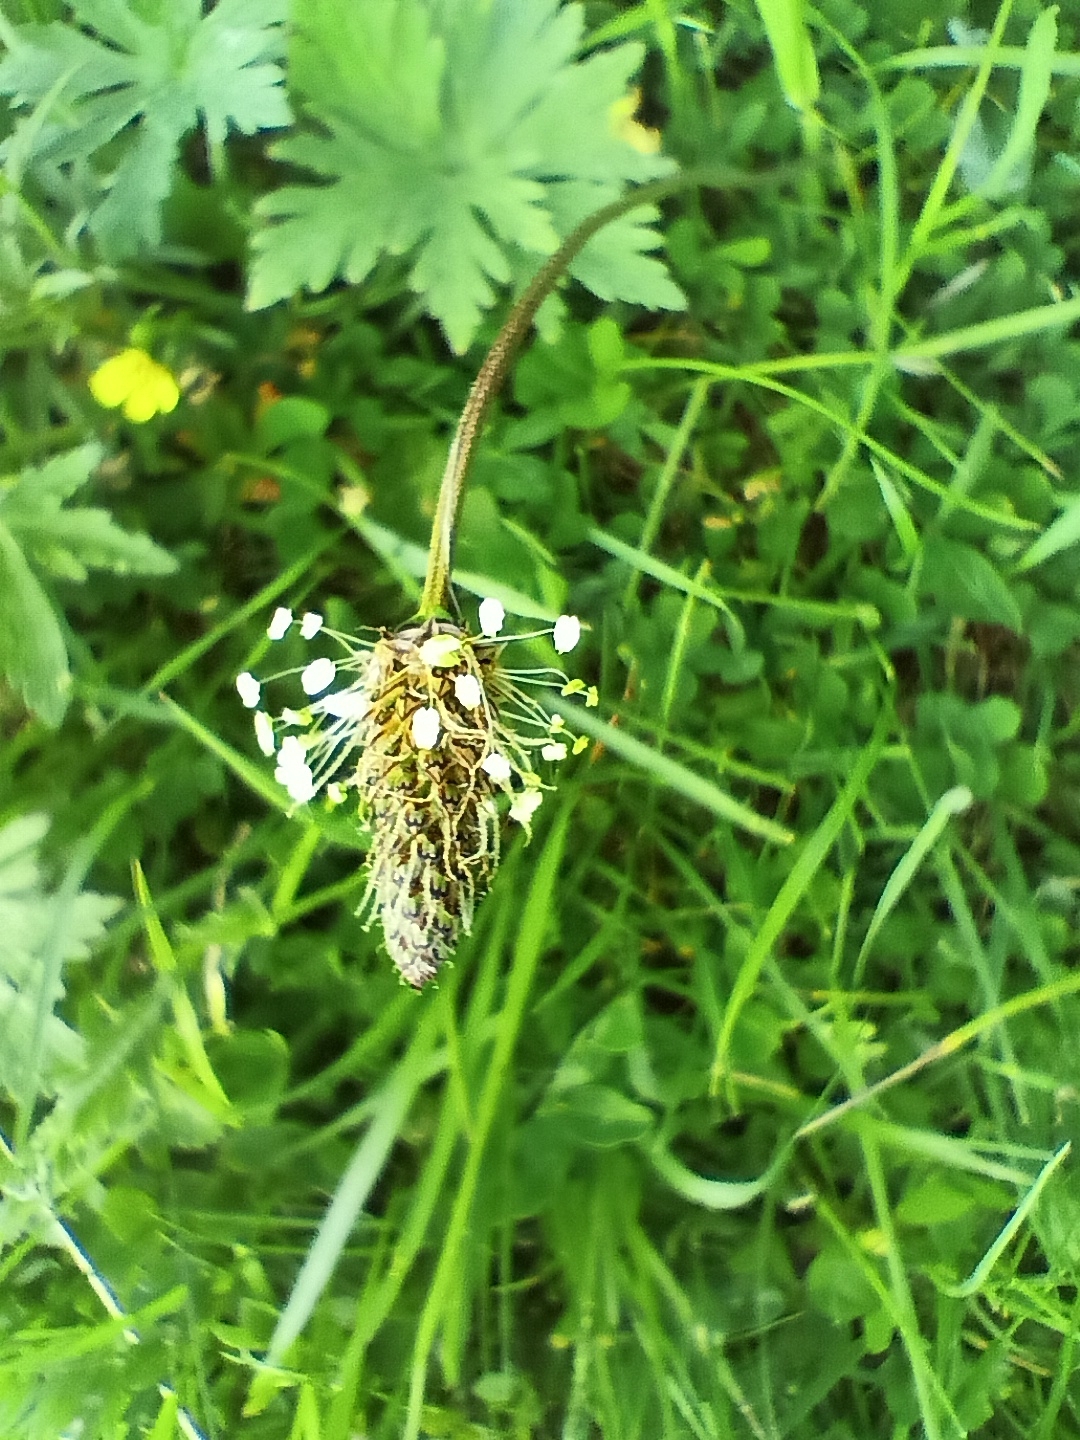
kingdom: Plantae
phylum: Tracheophyta
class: Magnoliopsida
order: Lamiales
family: Plantaginaceae
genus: Plantago
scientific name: Plantago lanceolata
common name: Ribwort plantain
